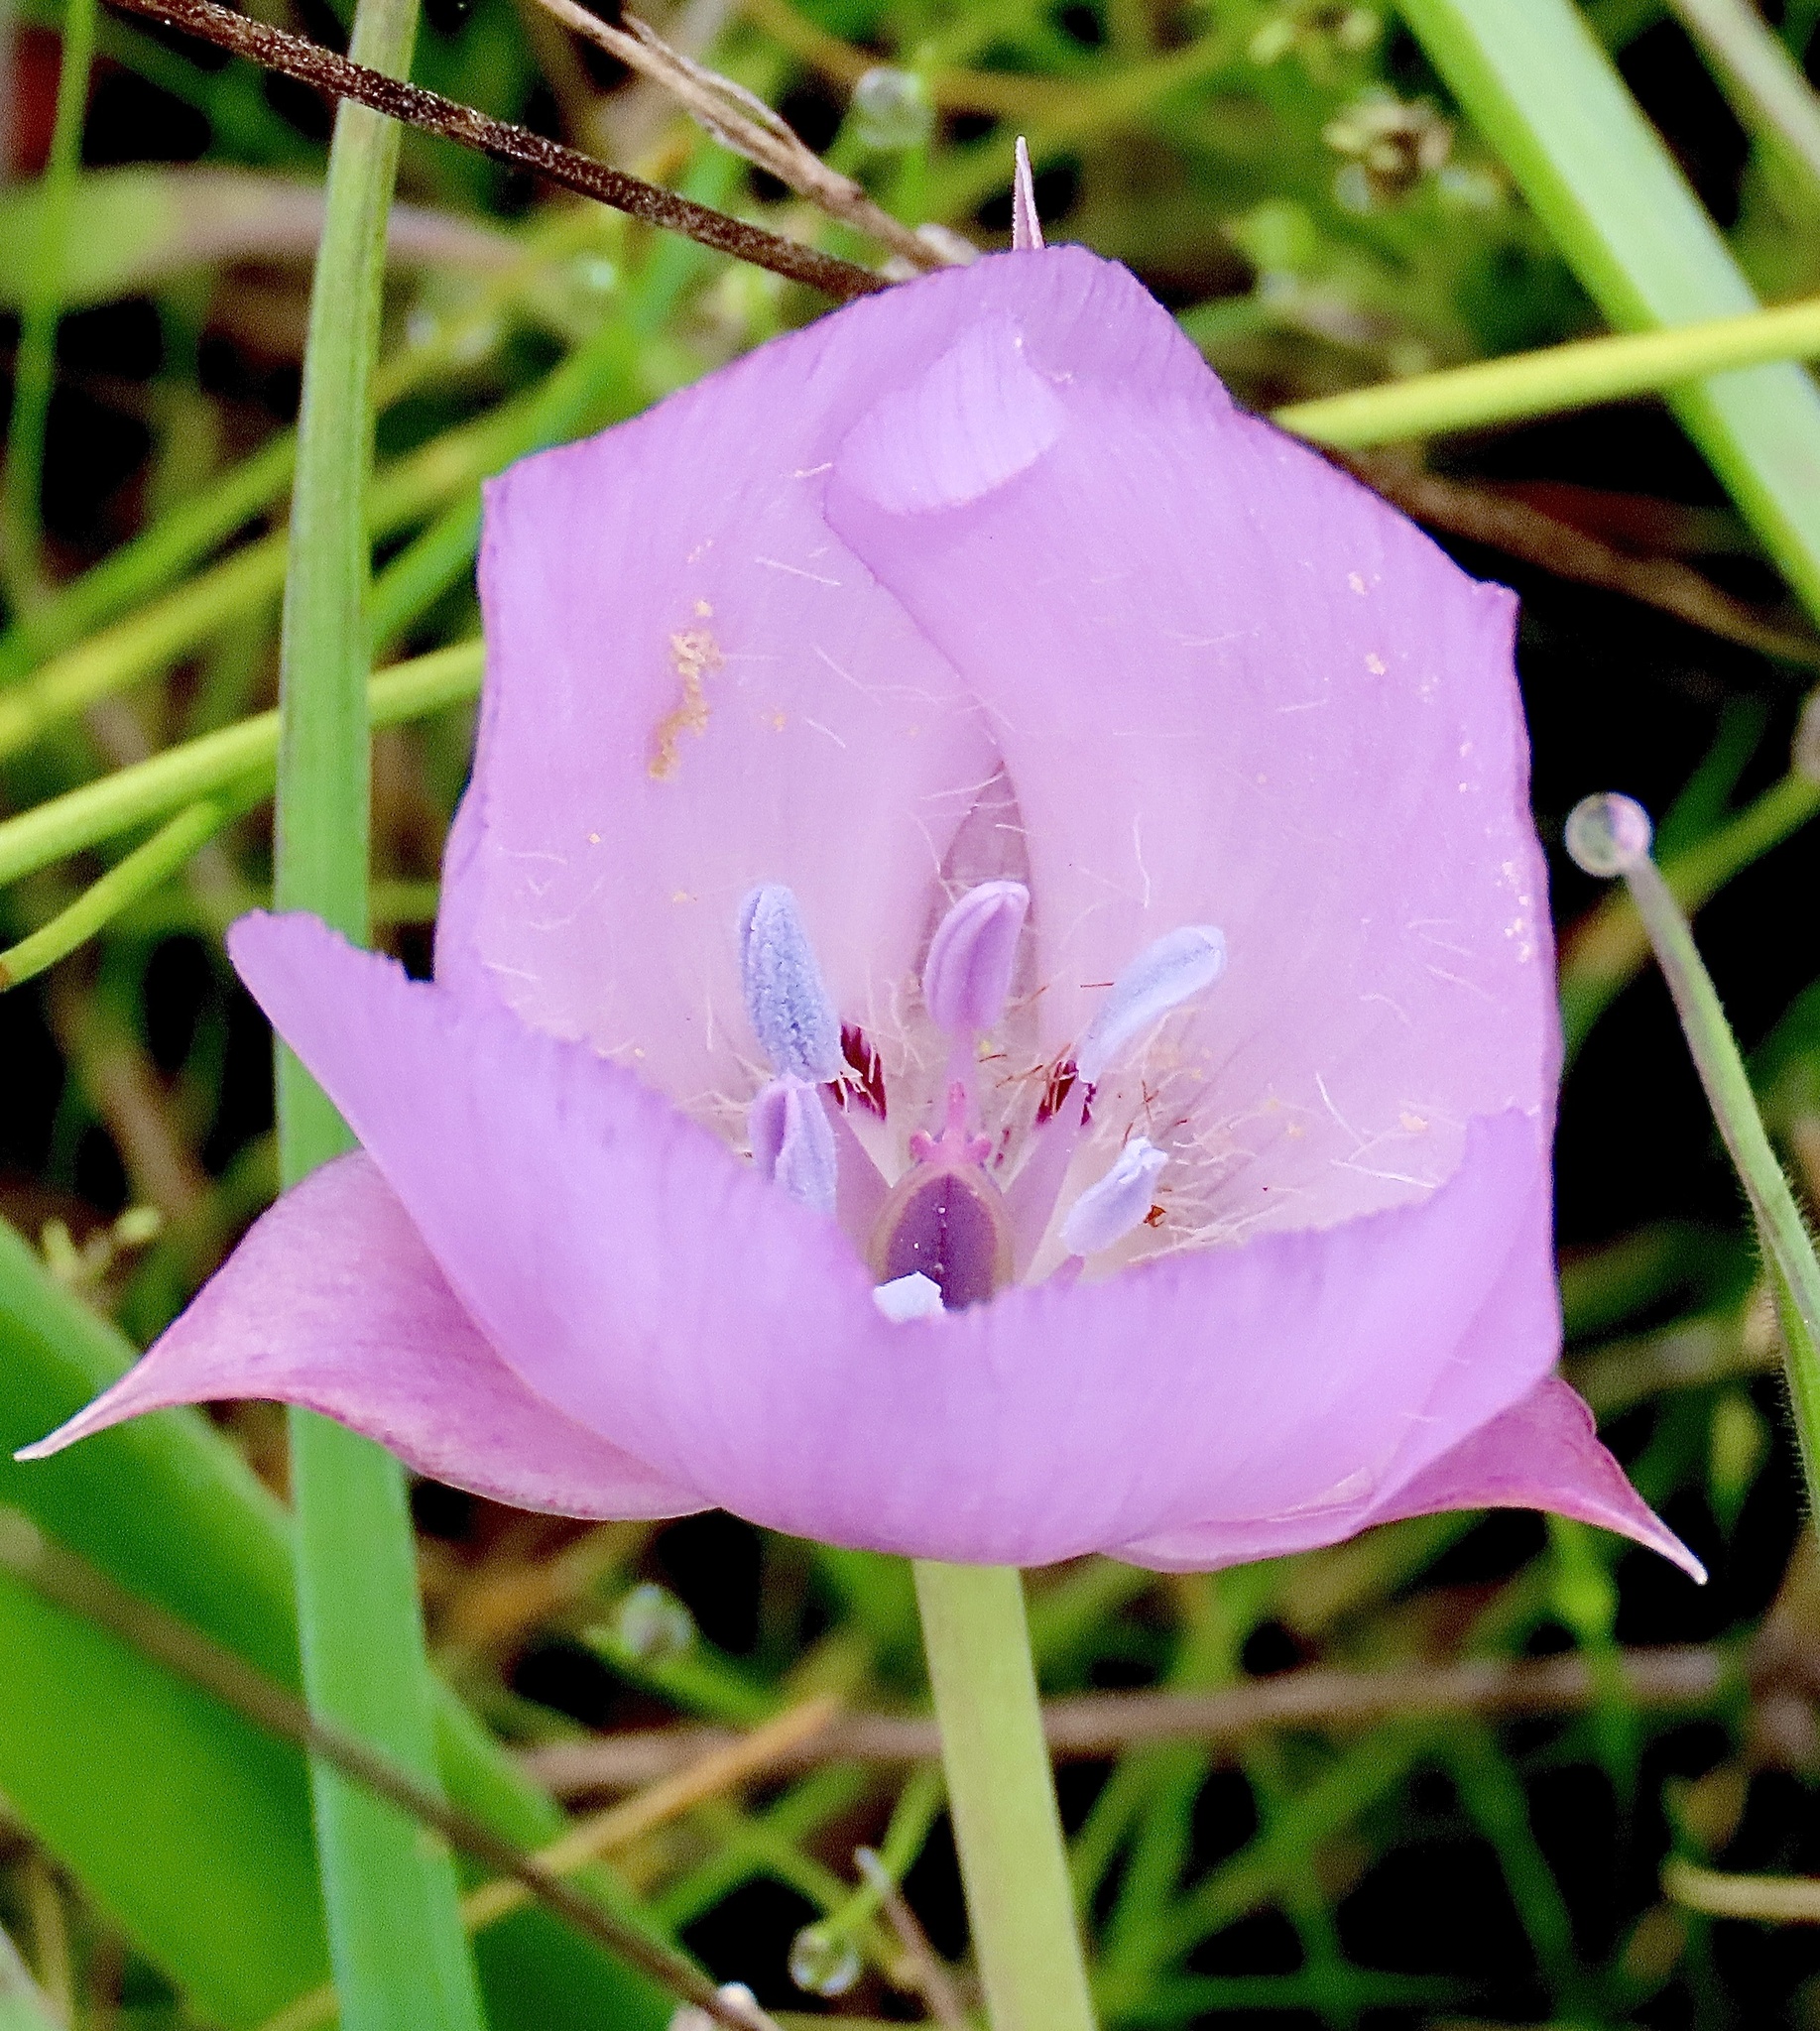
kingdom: Plantae
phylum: Tracheophyta
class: Liliopsida
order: Liliales
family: Liliaceae
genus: Calochortus
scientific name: Calochortus uniflorus
